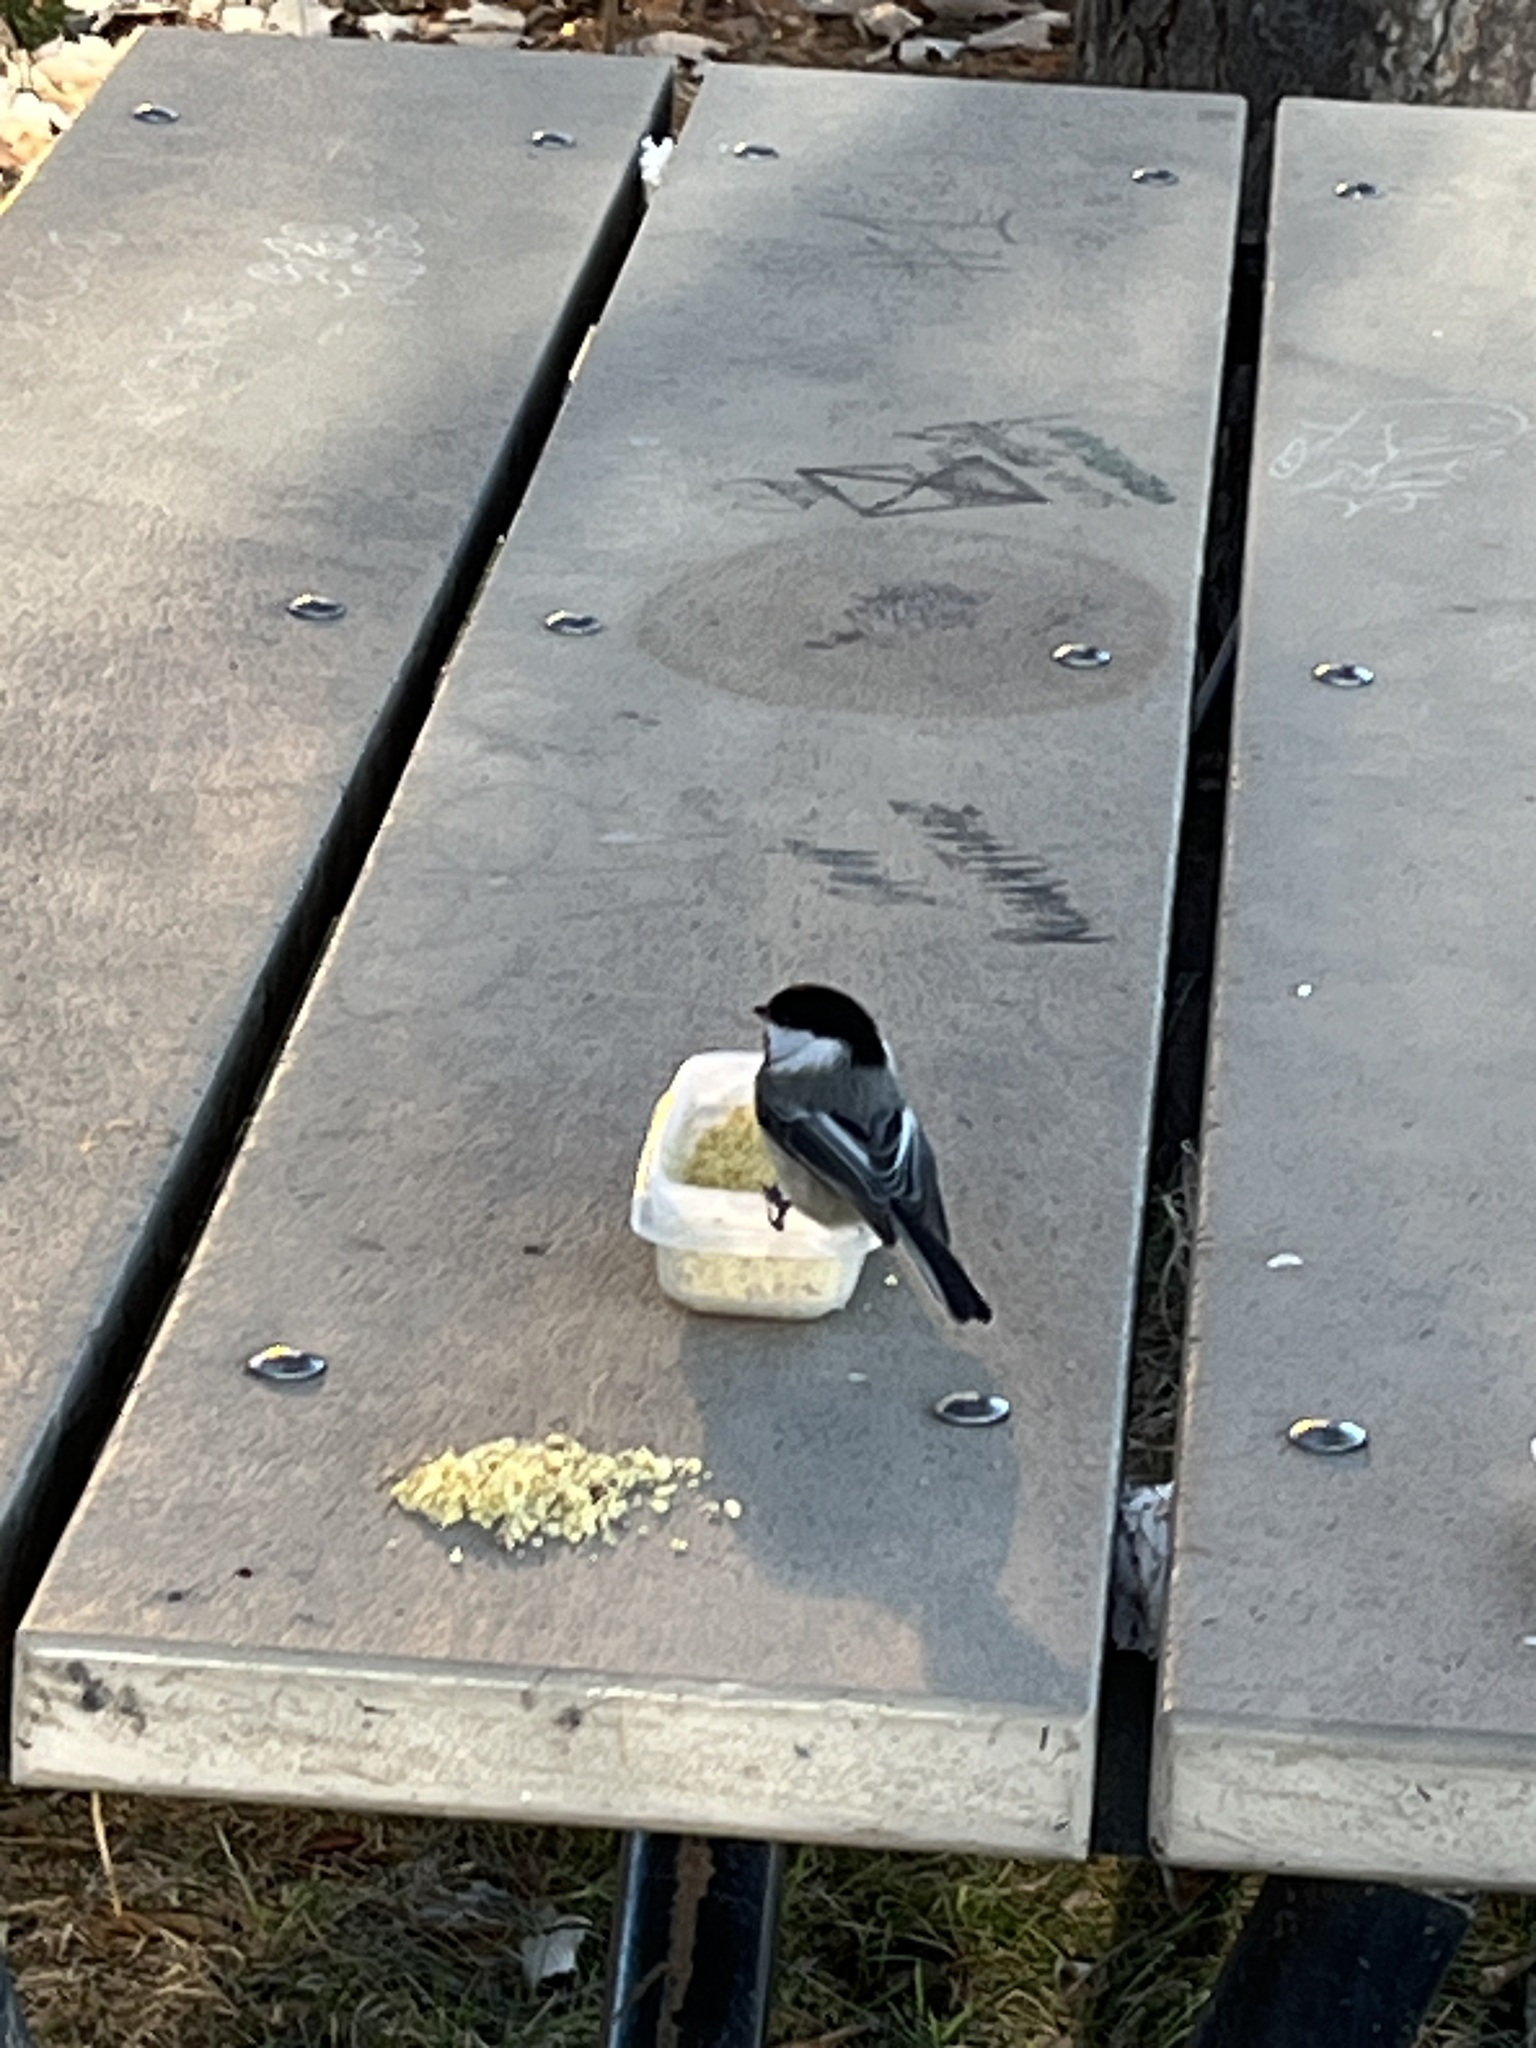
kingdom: Animalia
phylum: Chordata
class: Aves
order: Passeriformes
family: Paridae
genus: Poecile
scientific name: Poecile atricapillus
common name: Black-capped chickadee
